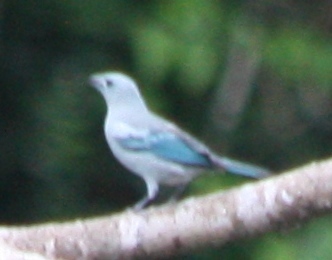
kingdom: Animalia
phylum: Chordata
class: Aves
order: Passeriformes
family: Thraupidae
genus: Thraupis
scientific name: Thraupis episcopus
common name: Blue-grey tanager
